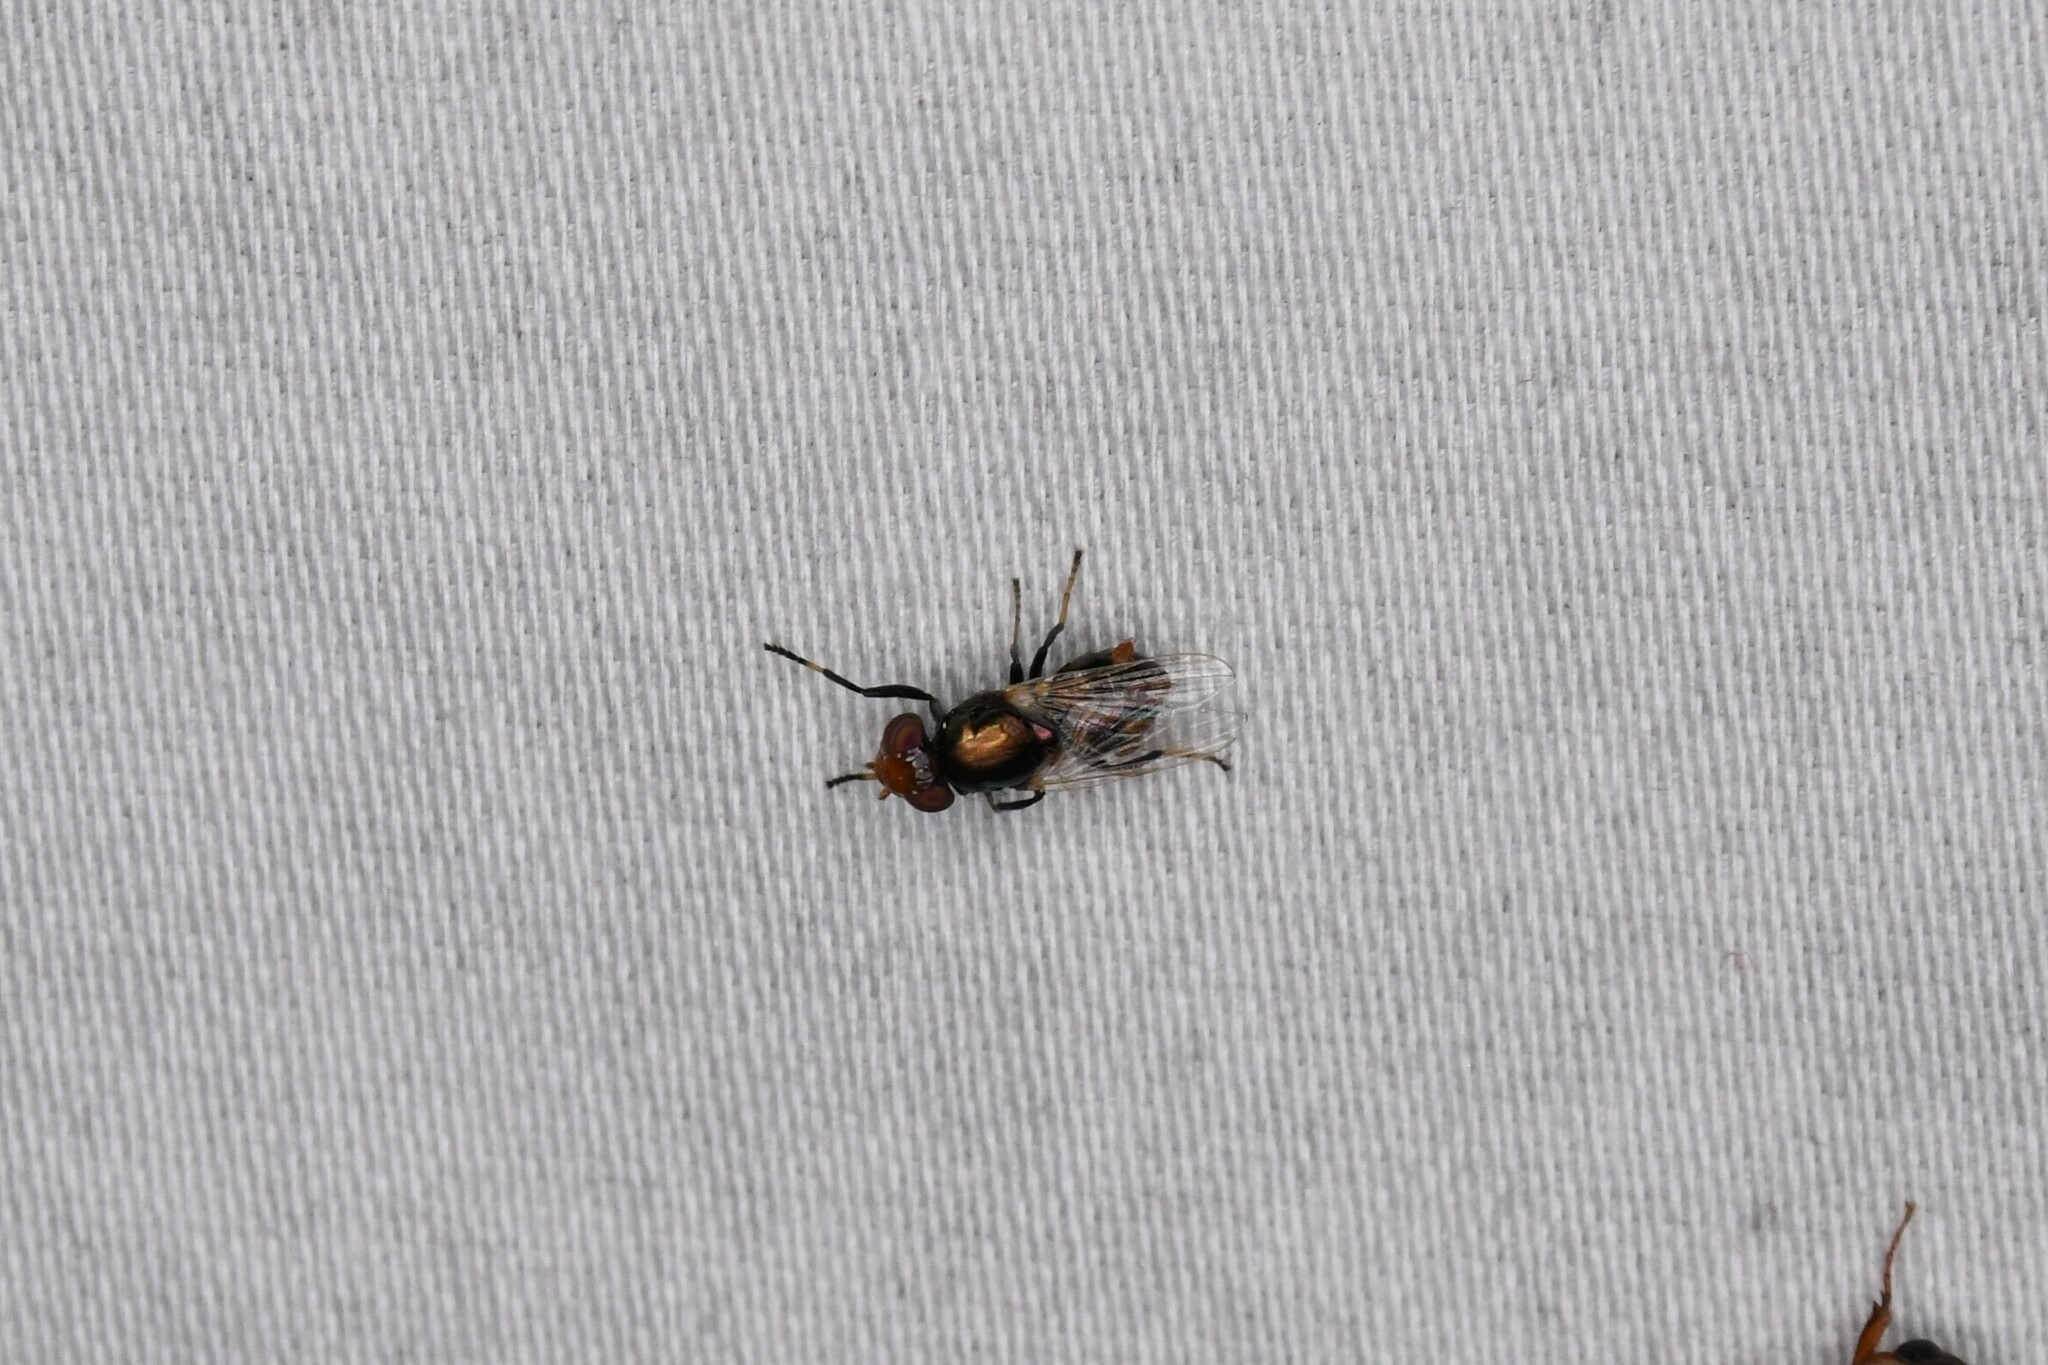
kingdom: Animalia
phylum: Arthropoda
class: Insecta
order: Diptera
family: Ulidiidae
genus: Physiphora
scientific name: Physiphora alceae
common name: Picture-winged fly
